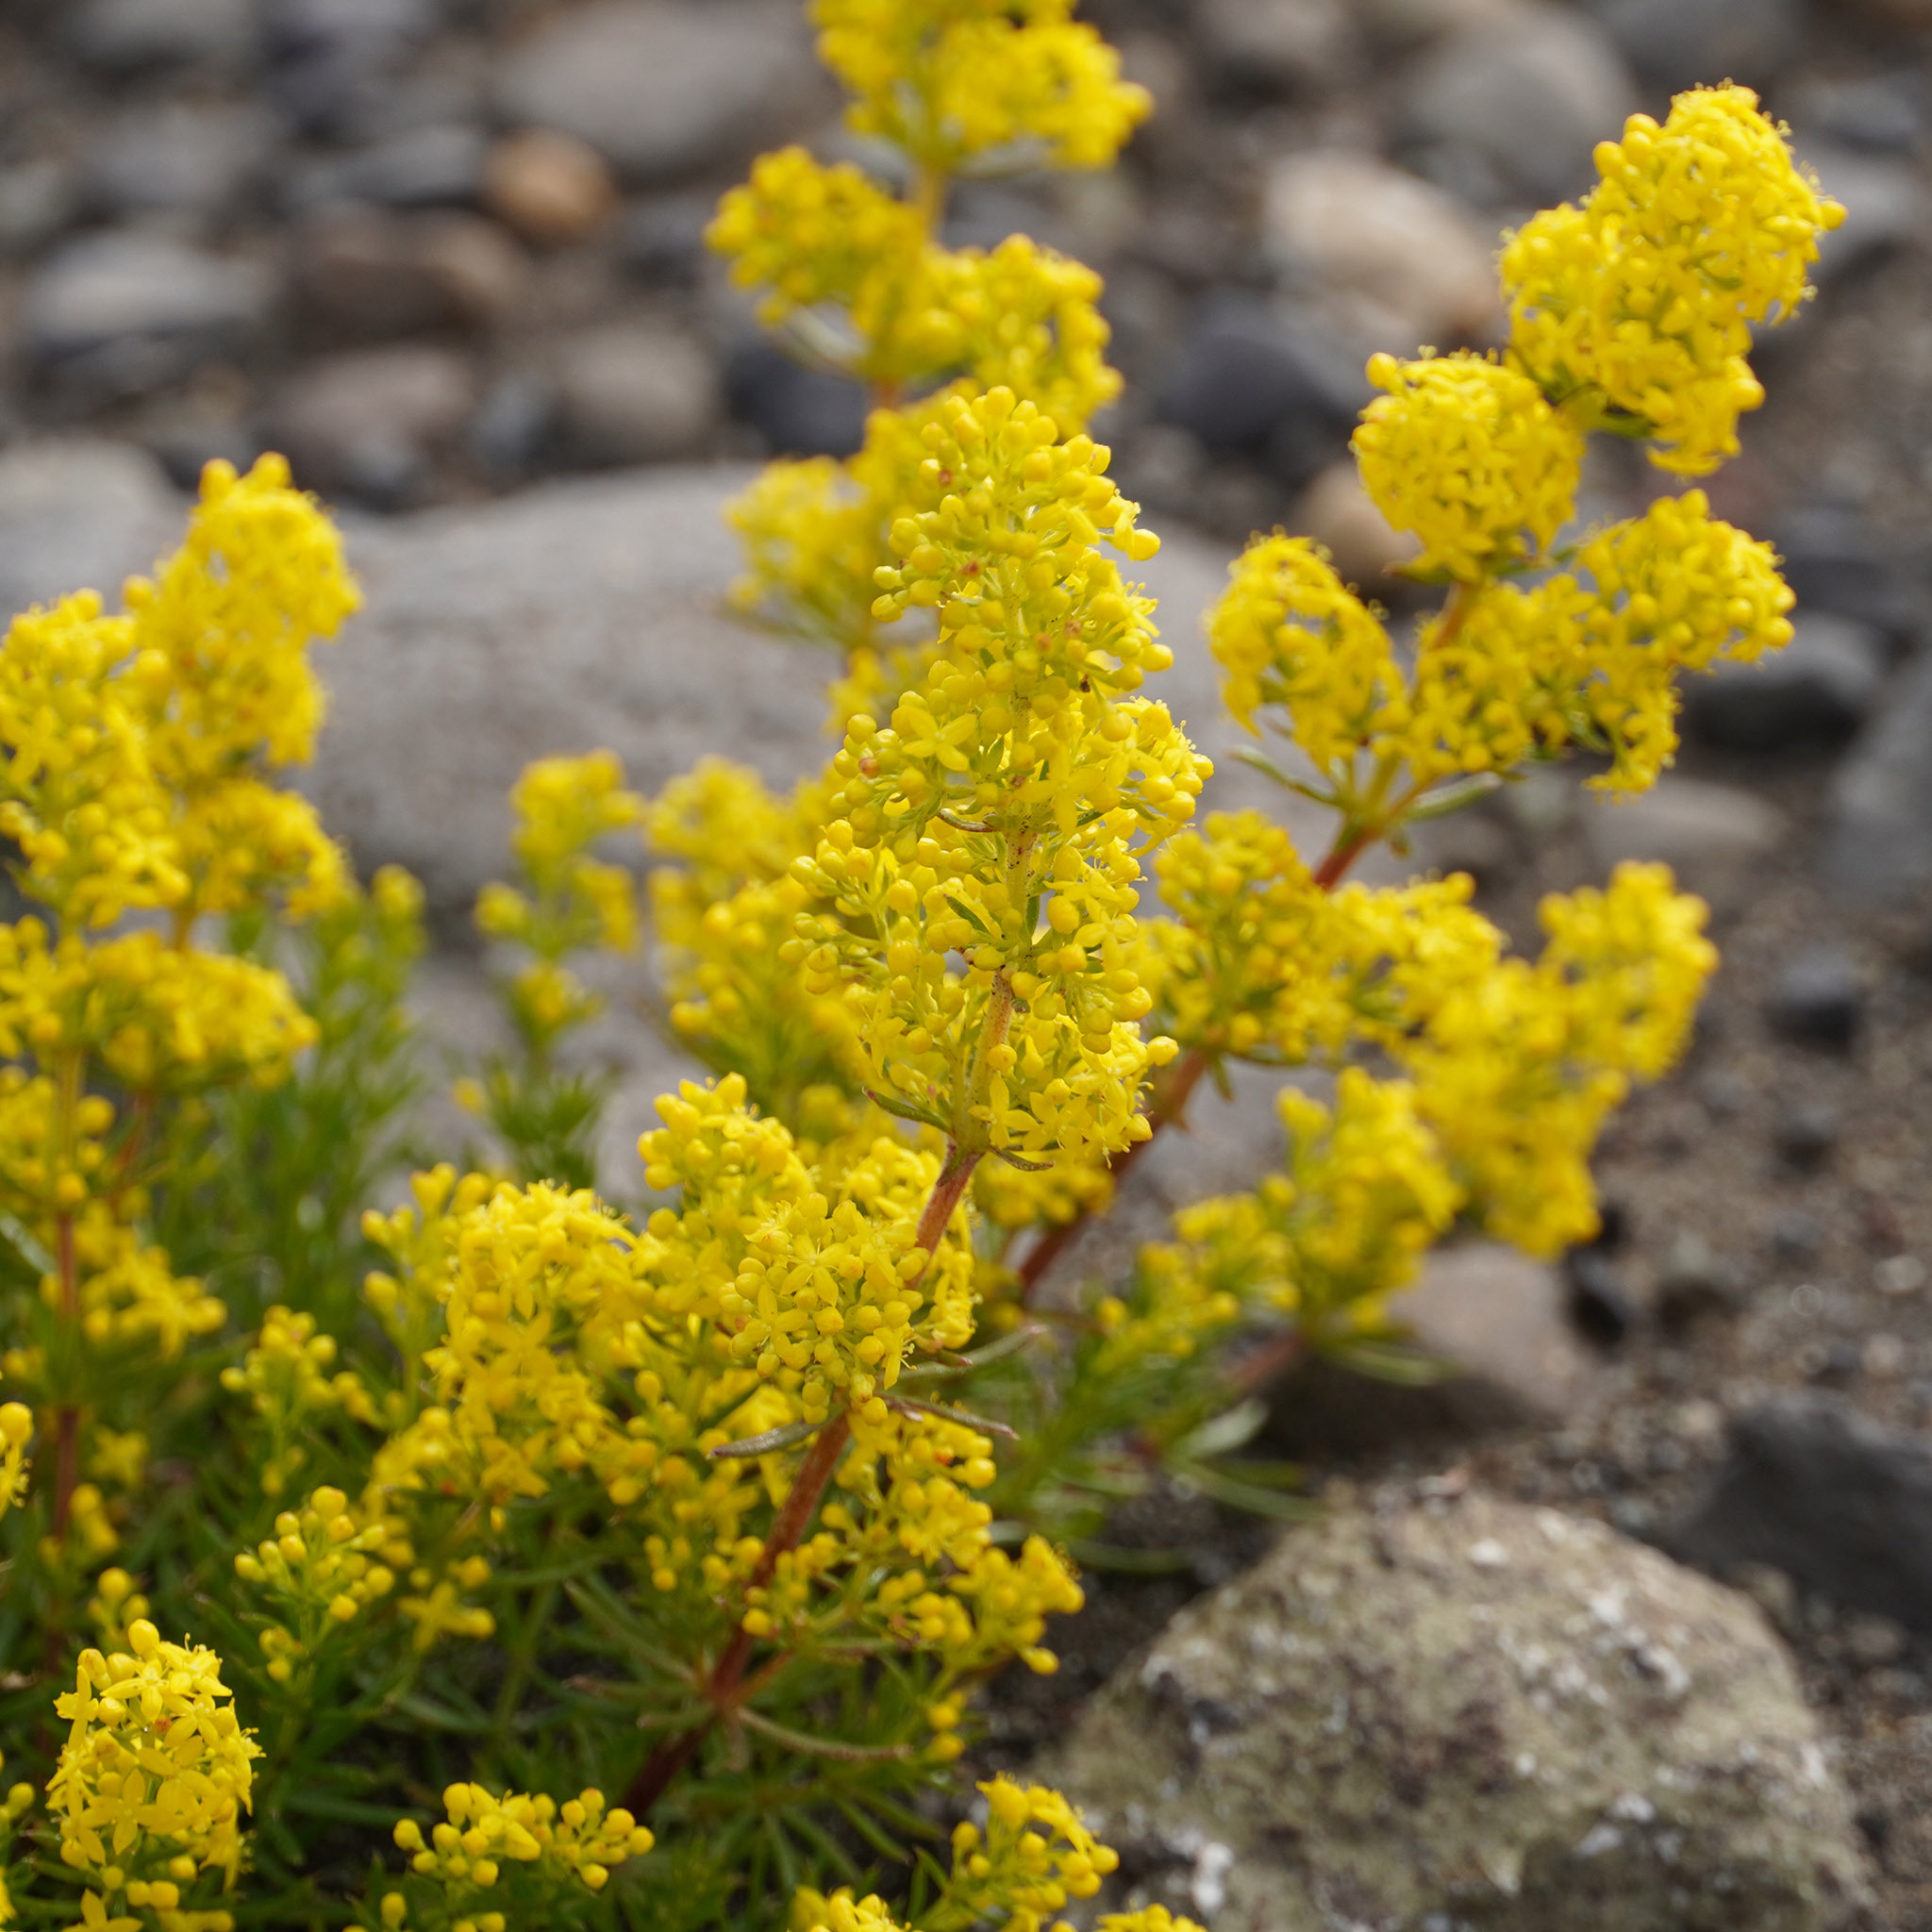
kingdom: Plantae
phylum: Tracheophyta
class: Magnoliopsida
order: Gentianales
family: Rubiaceae
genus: Galium
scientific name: Galium verum
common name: Lady's bedstraw
